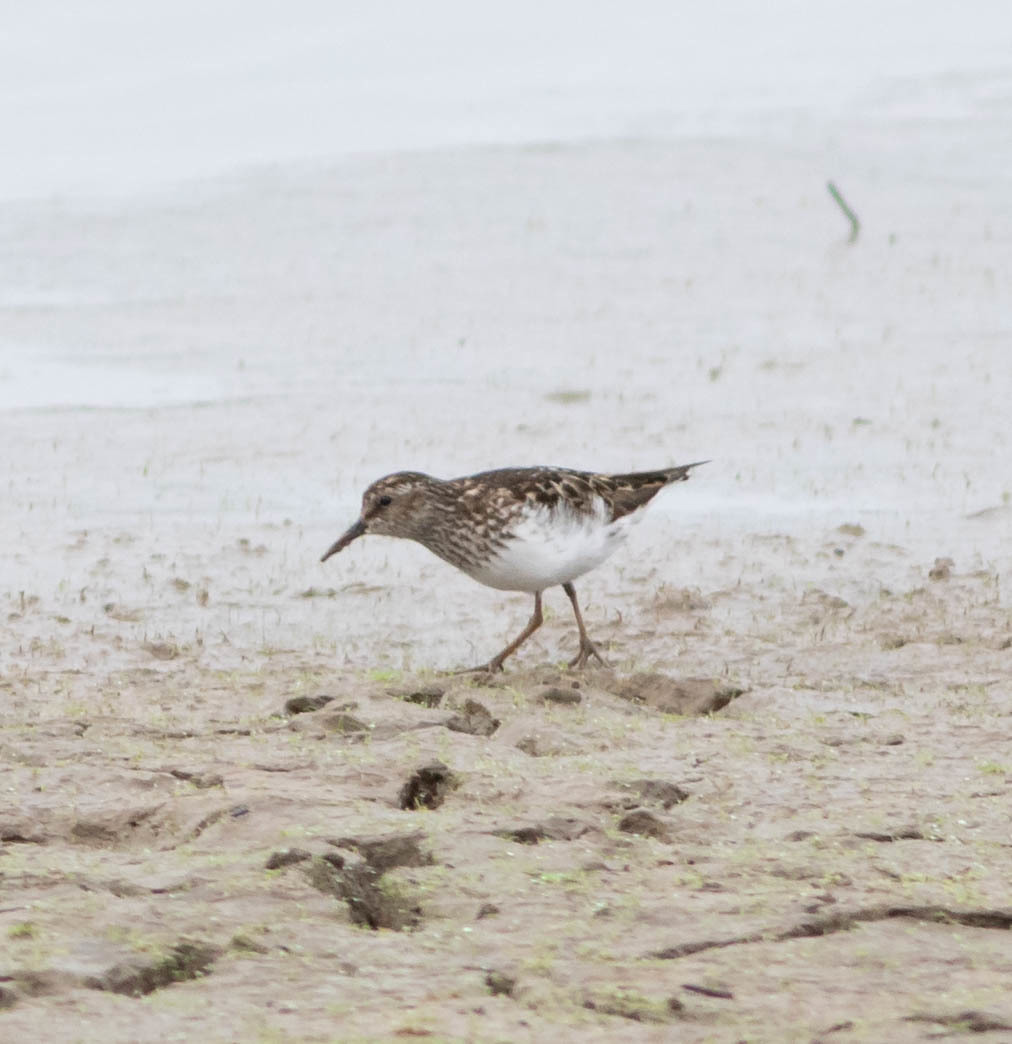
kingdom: Animalia
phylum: Chordata
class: Aves
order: Charadriiformes
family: Scolopacidae
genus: Calidris
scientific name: Calidris minutilla
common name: Least sandpiper
